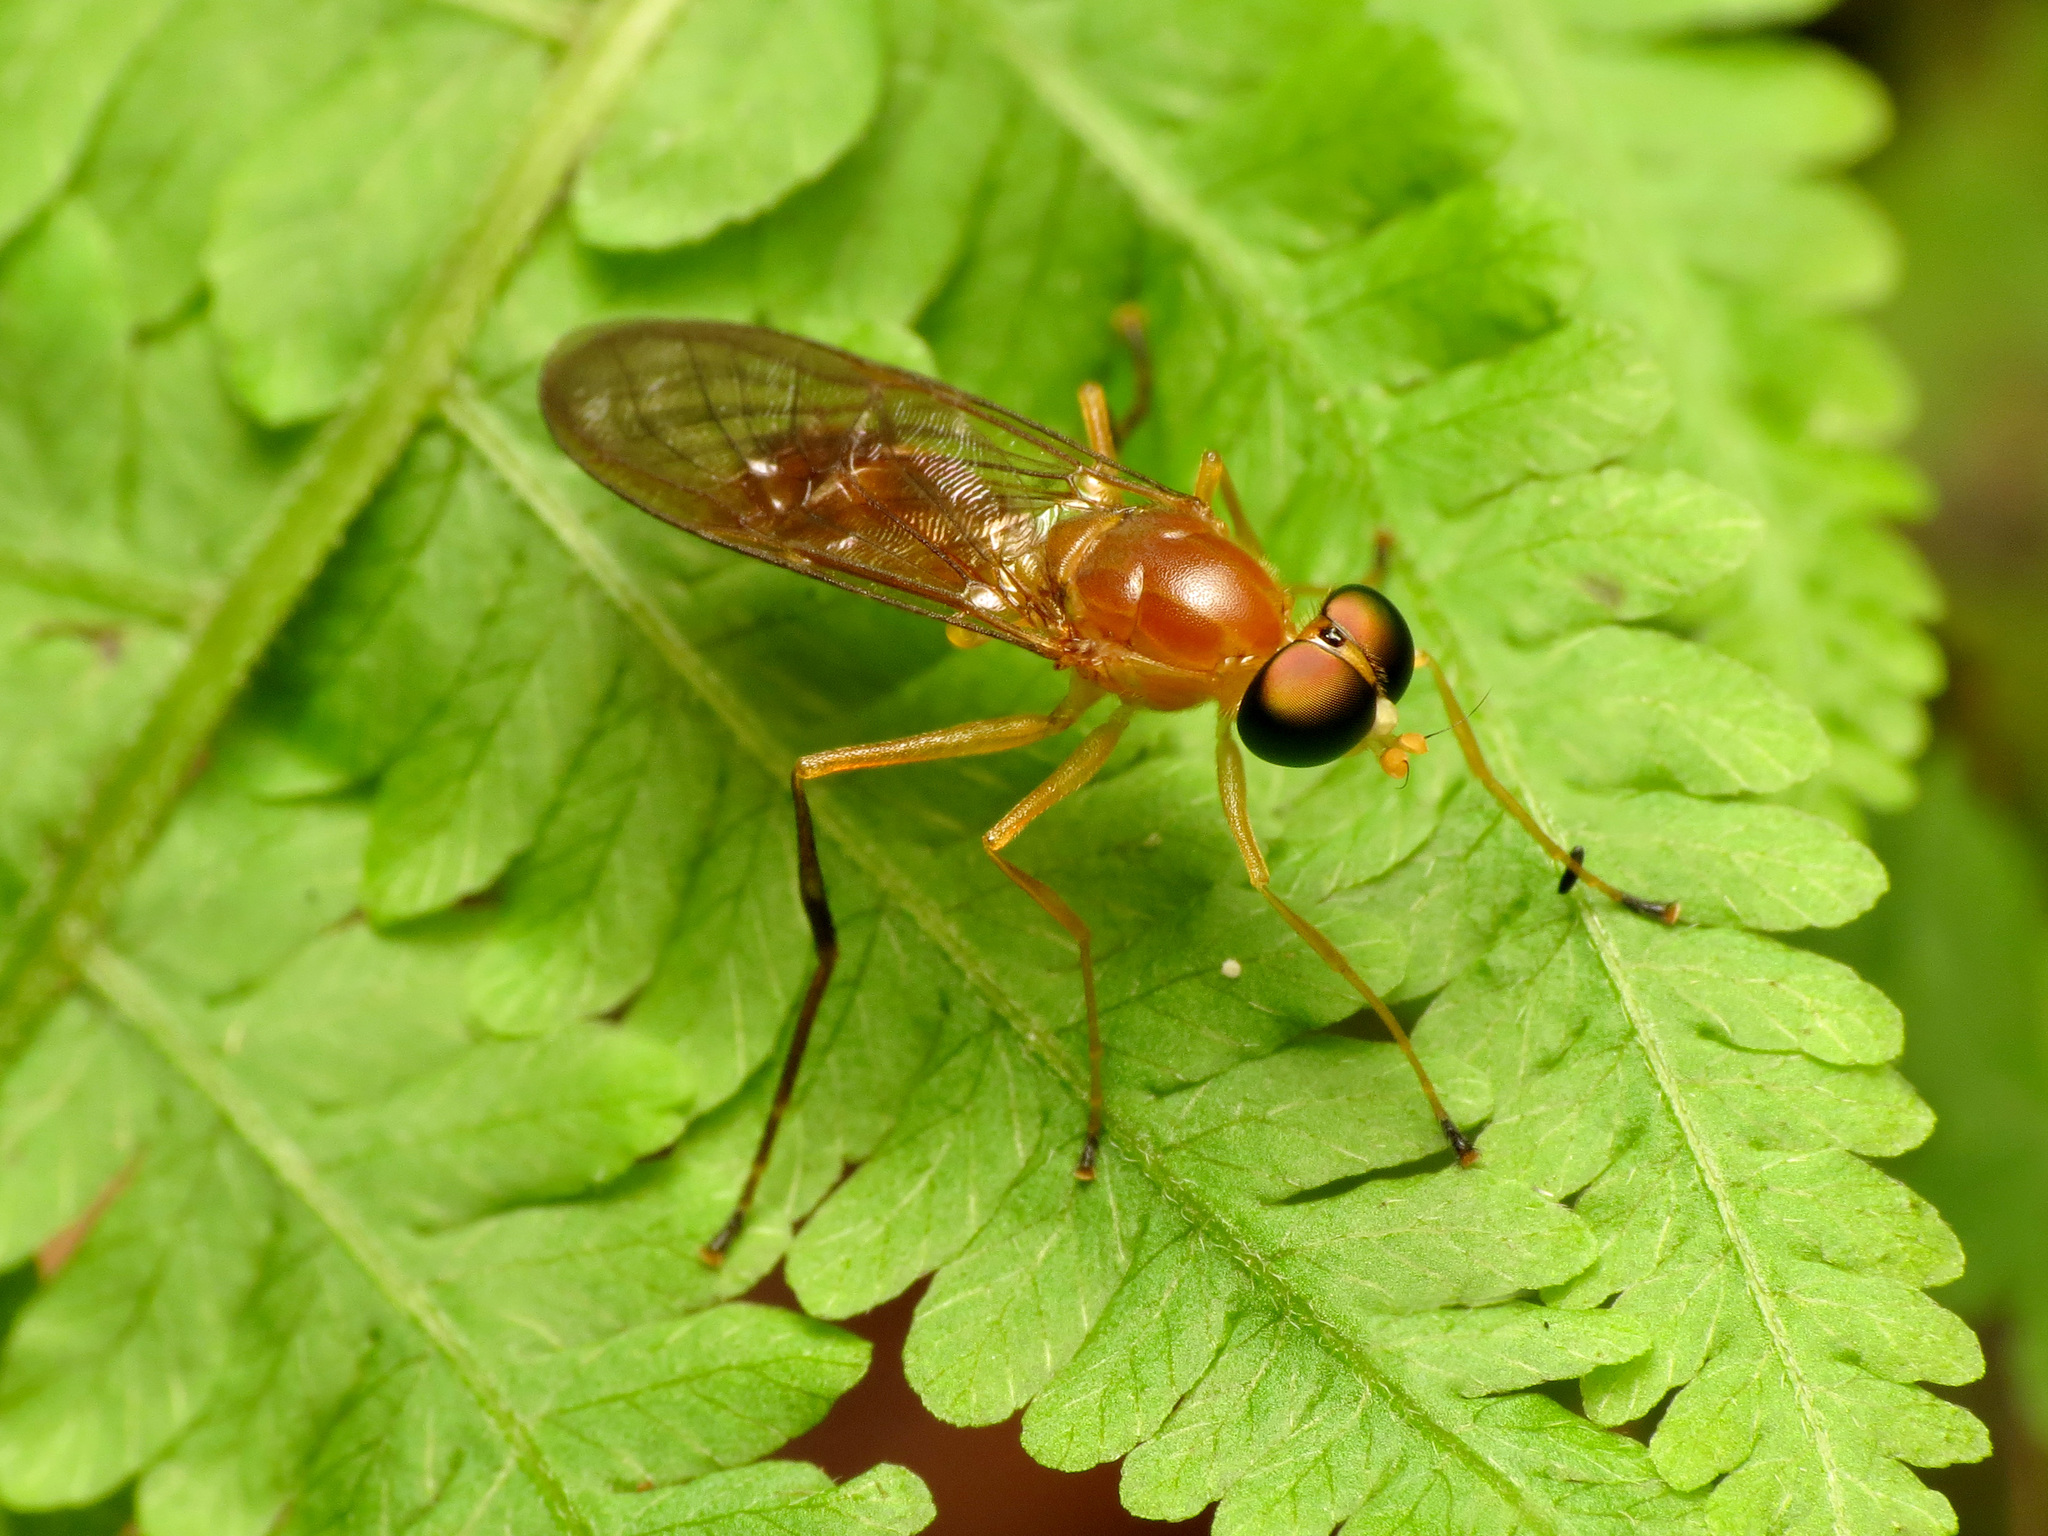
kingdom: Animalia
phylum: Arthropoda
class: Insecta
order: Diptera
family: Stratiomyidae
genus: Ptecticus
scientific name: Ptecticus trivittatus
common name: Compost fly
